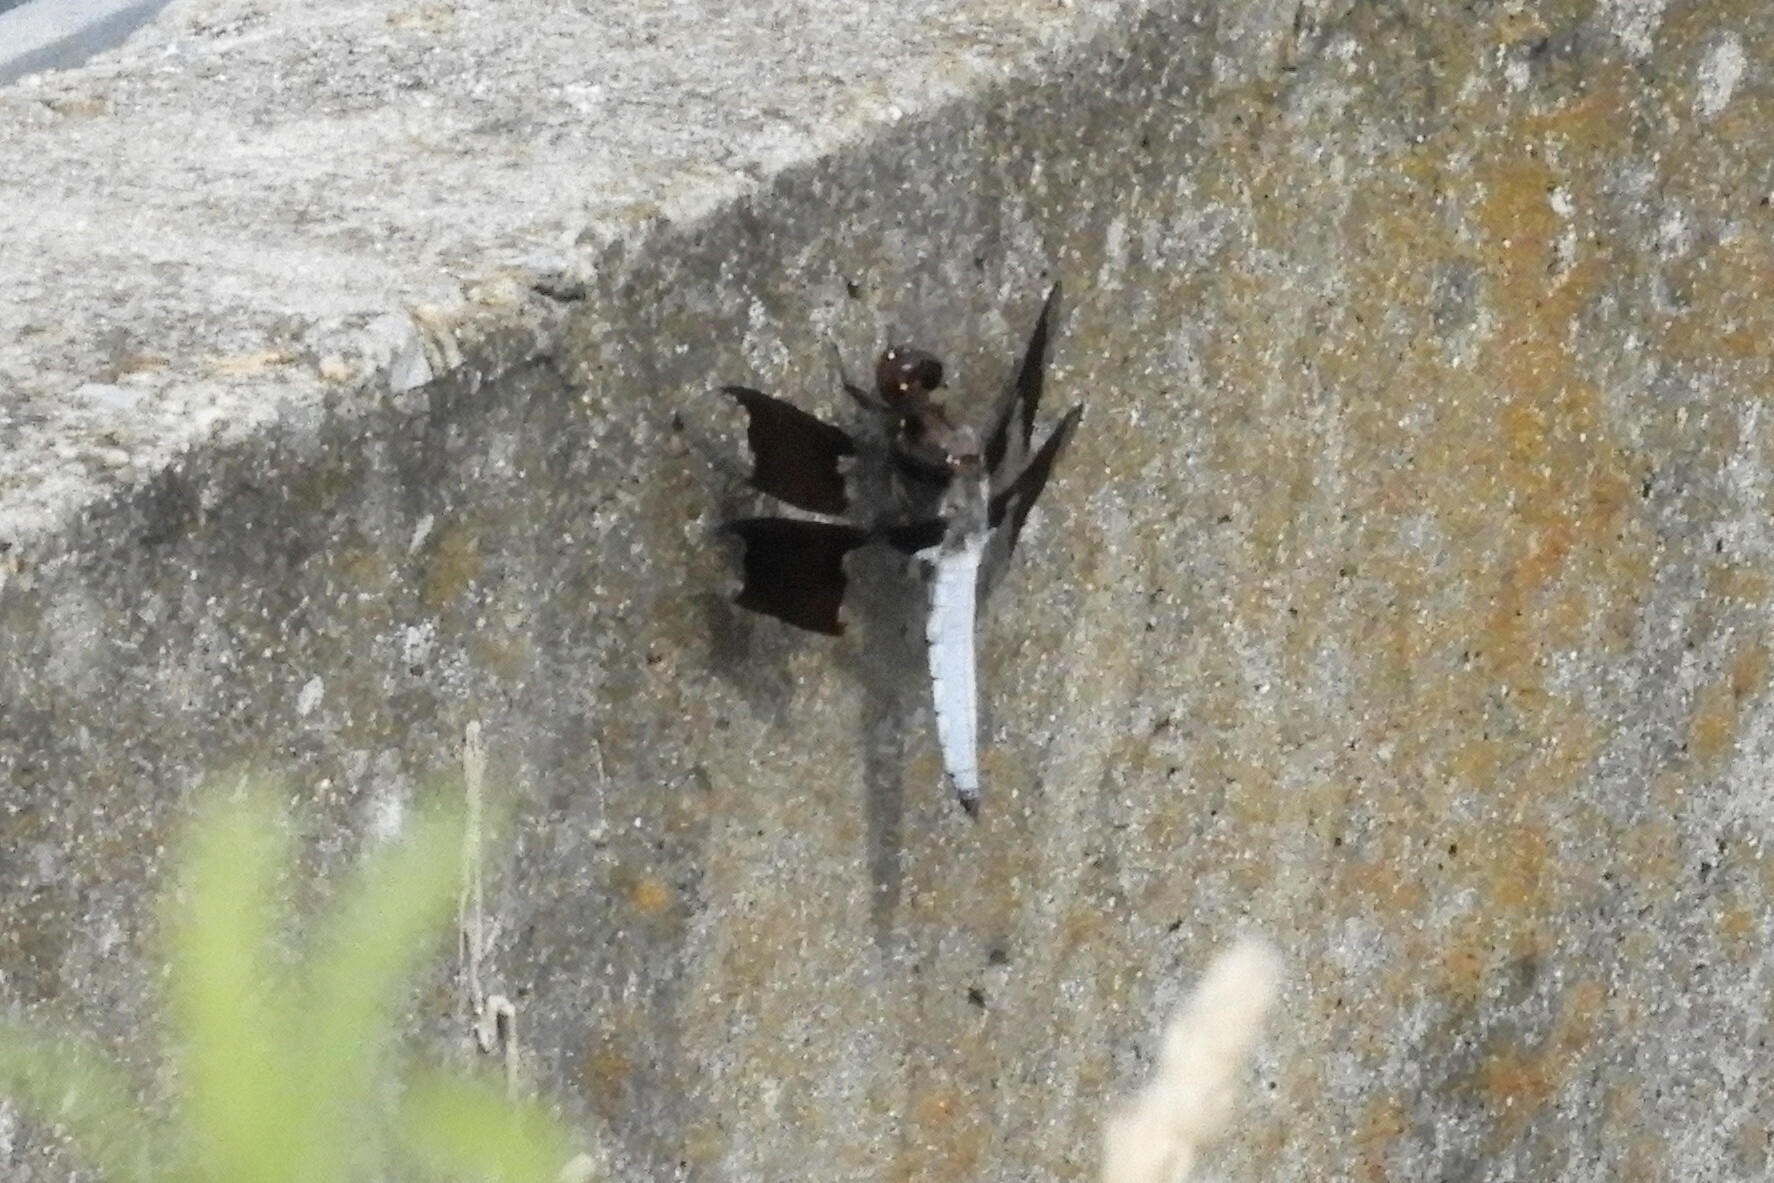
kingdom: Animalia
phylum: Arthropoda
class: Insecta
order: Odonata
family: Libellulidae
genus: Plathemis
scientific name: Plathemis lydia
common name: Common whitetail
